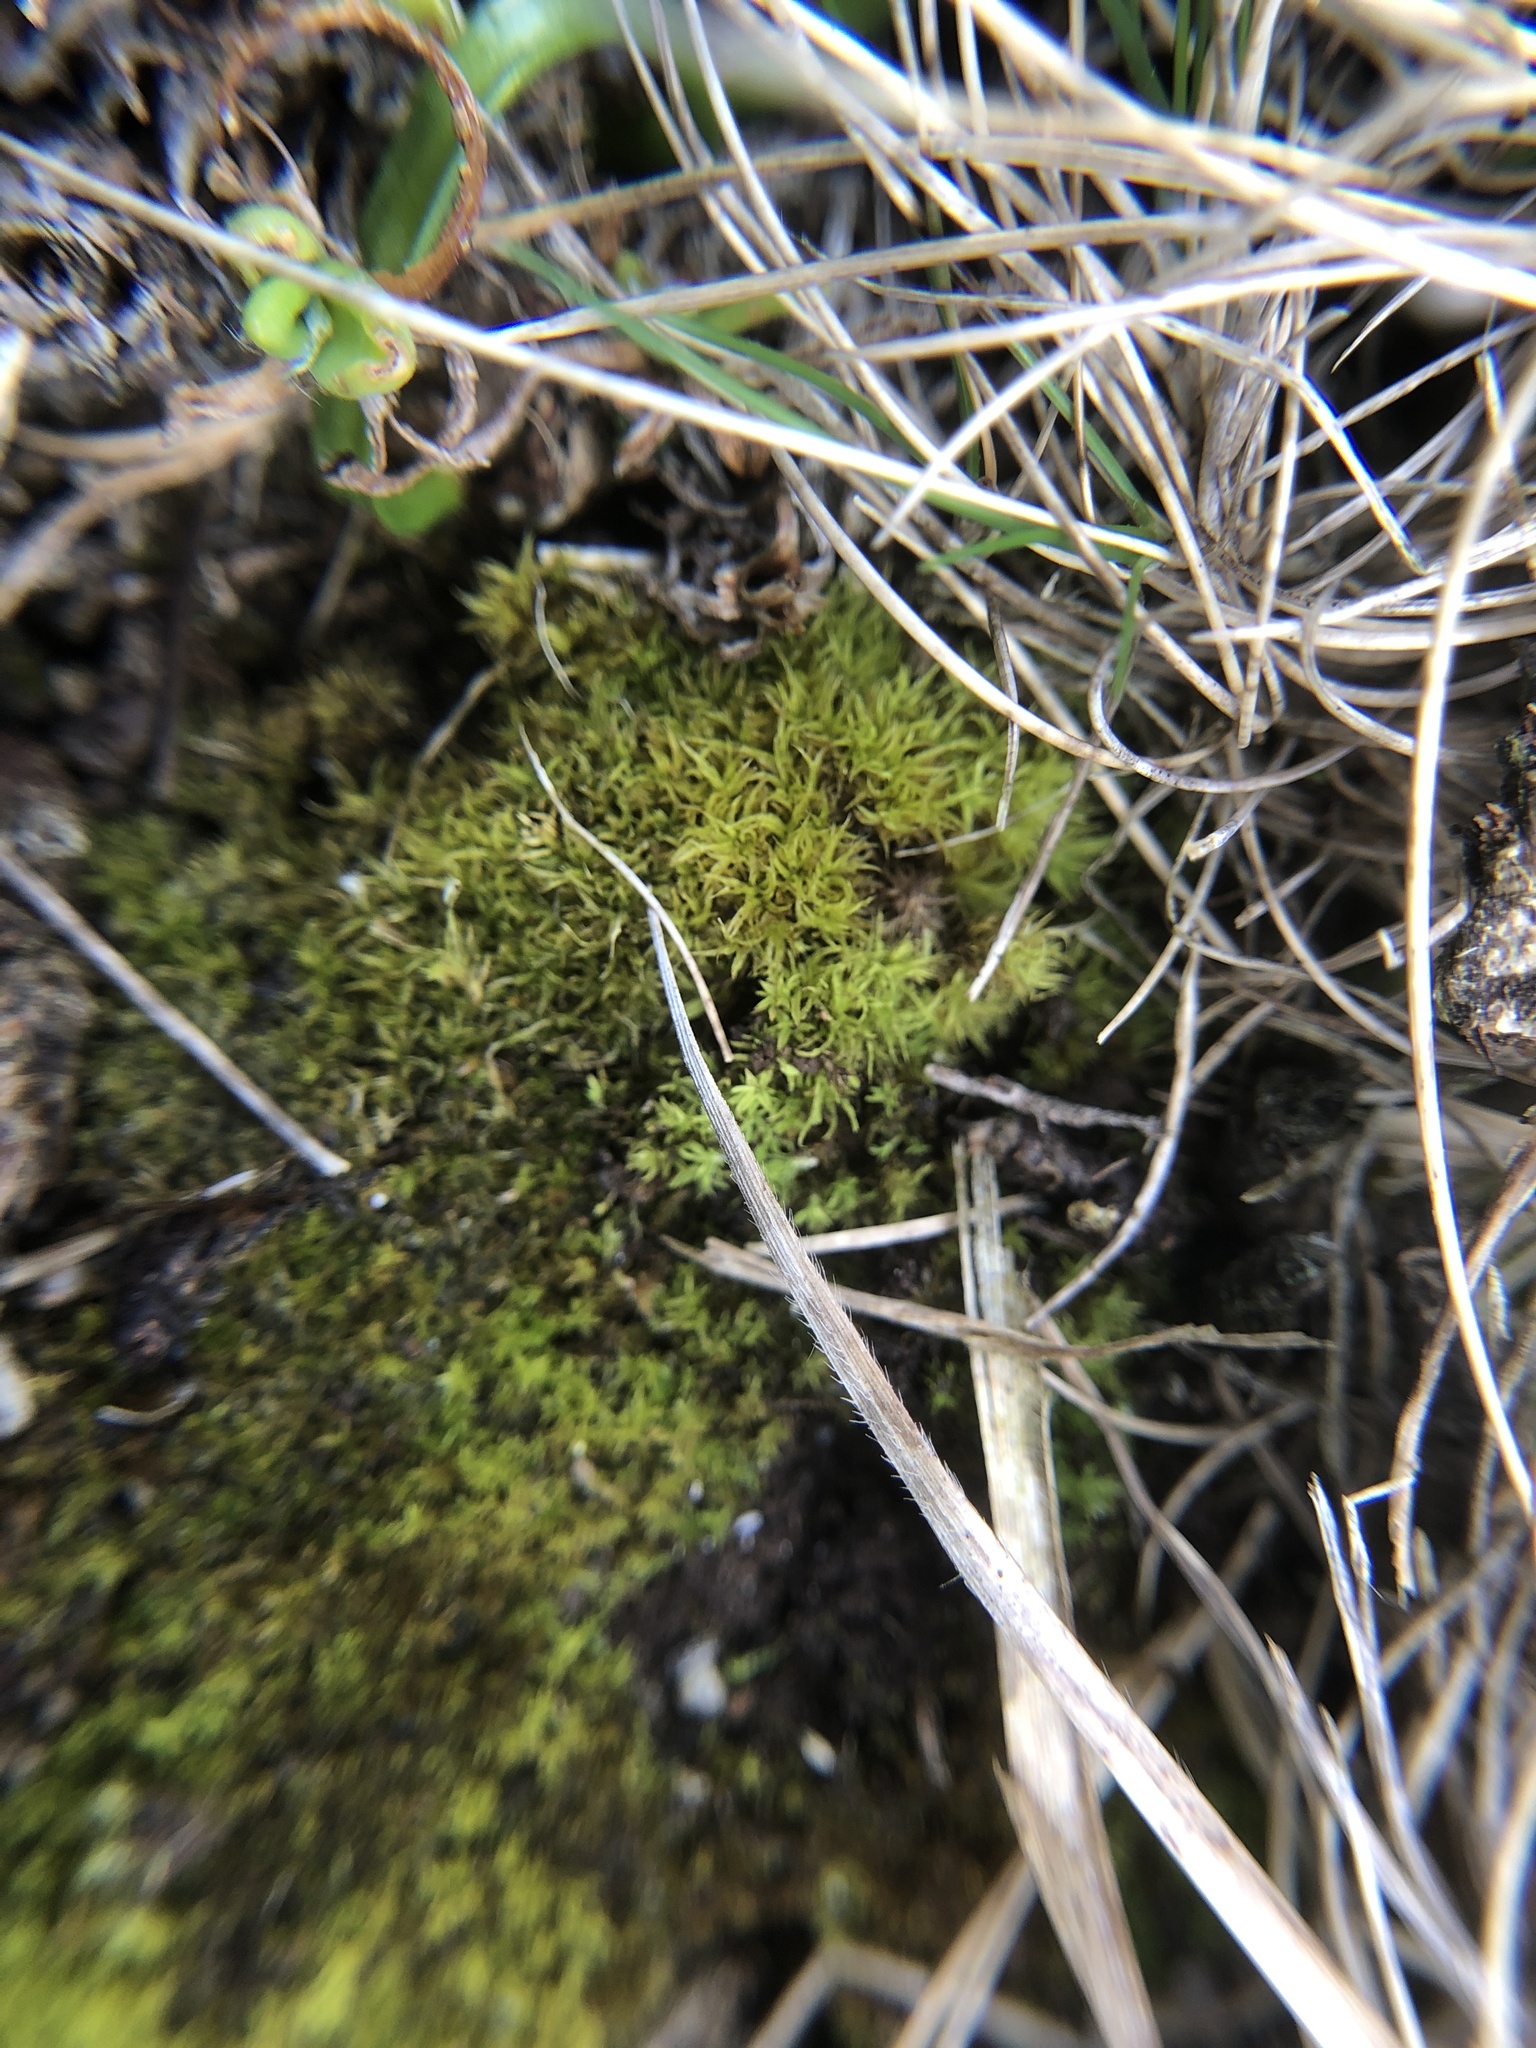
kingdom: Plantae
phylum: Bryophyta
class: Bryopsida
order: Pottiales
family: Pottiaceae
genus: Tortella
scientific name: Tortella flavovirens
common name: Arisaig crisp-moss
